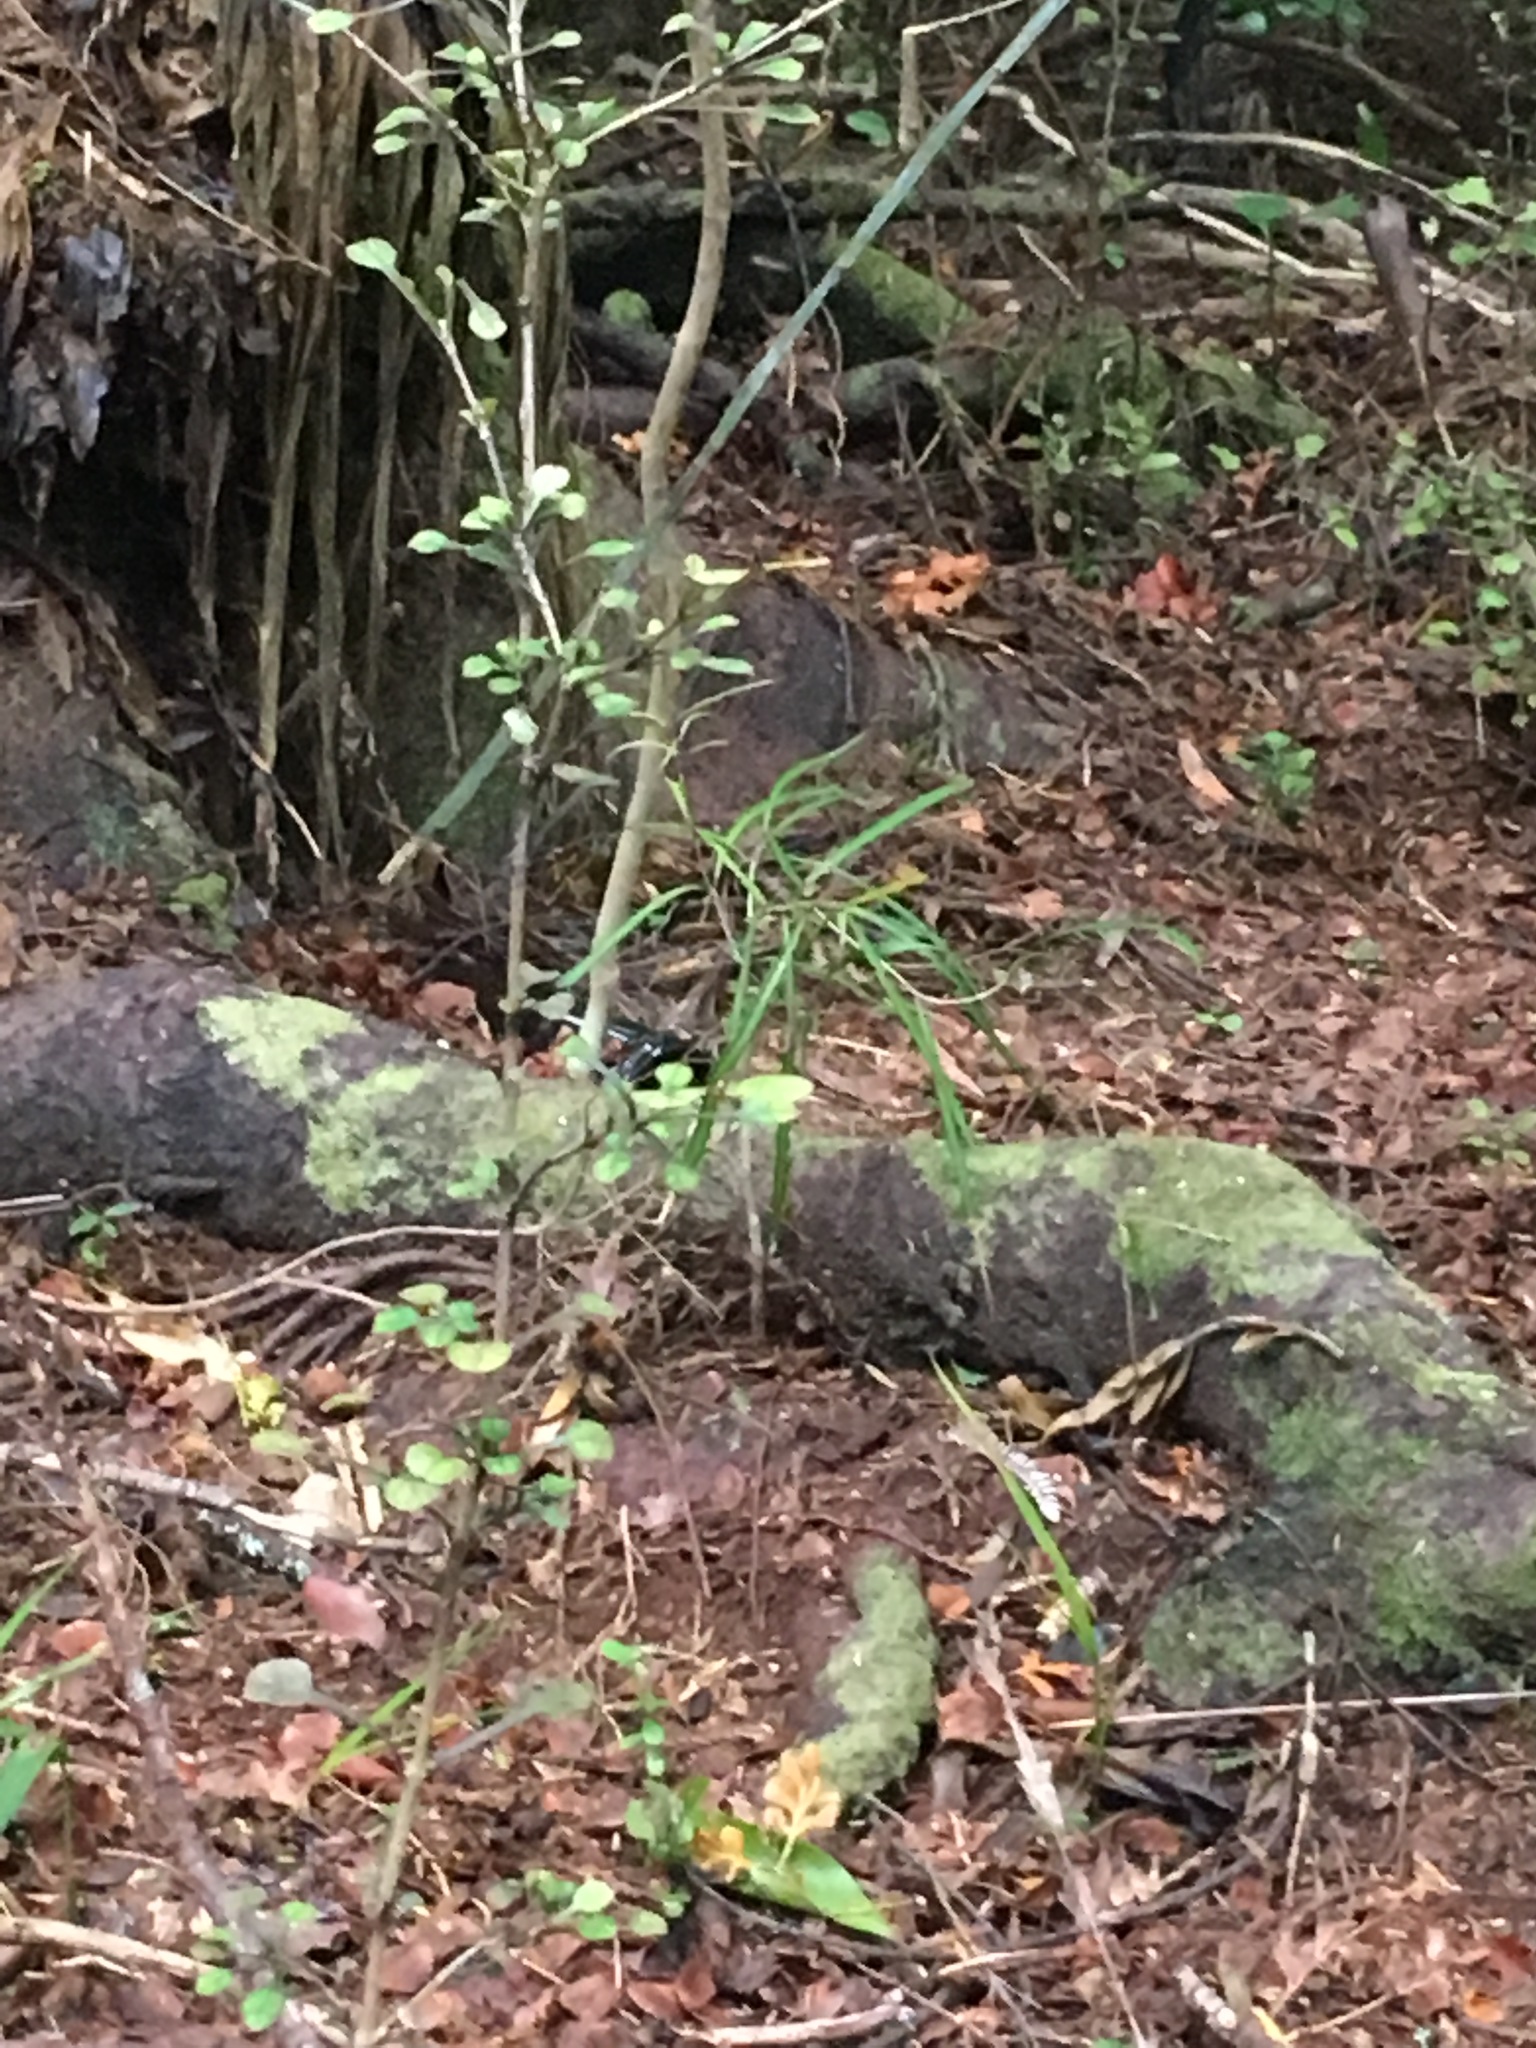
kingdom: Plantae
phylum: Tracheophyta
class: Magnoliopsida
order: Apiales
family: Araliaceae
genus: Pseudopanax
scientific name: Pseudopanax crassifolius
